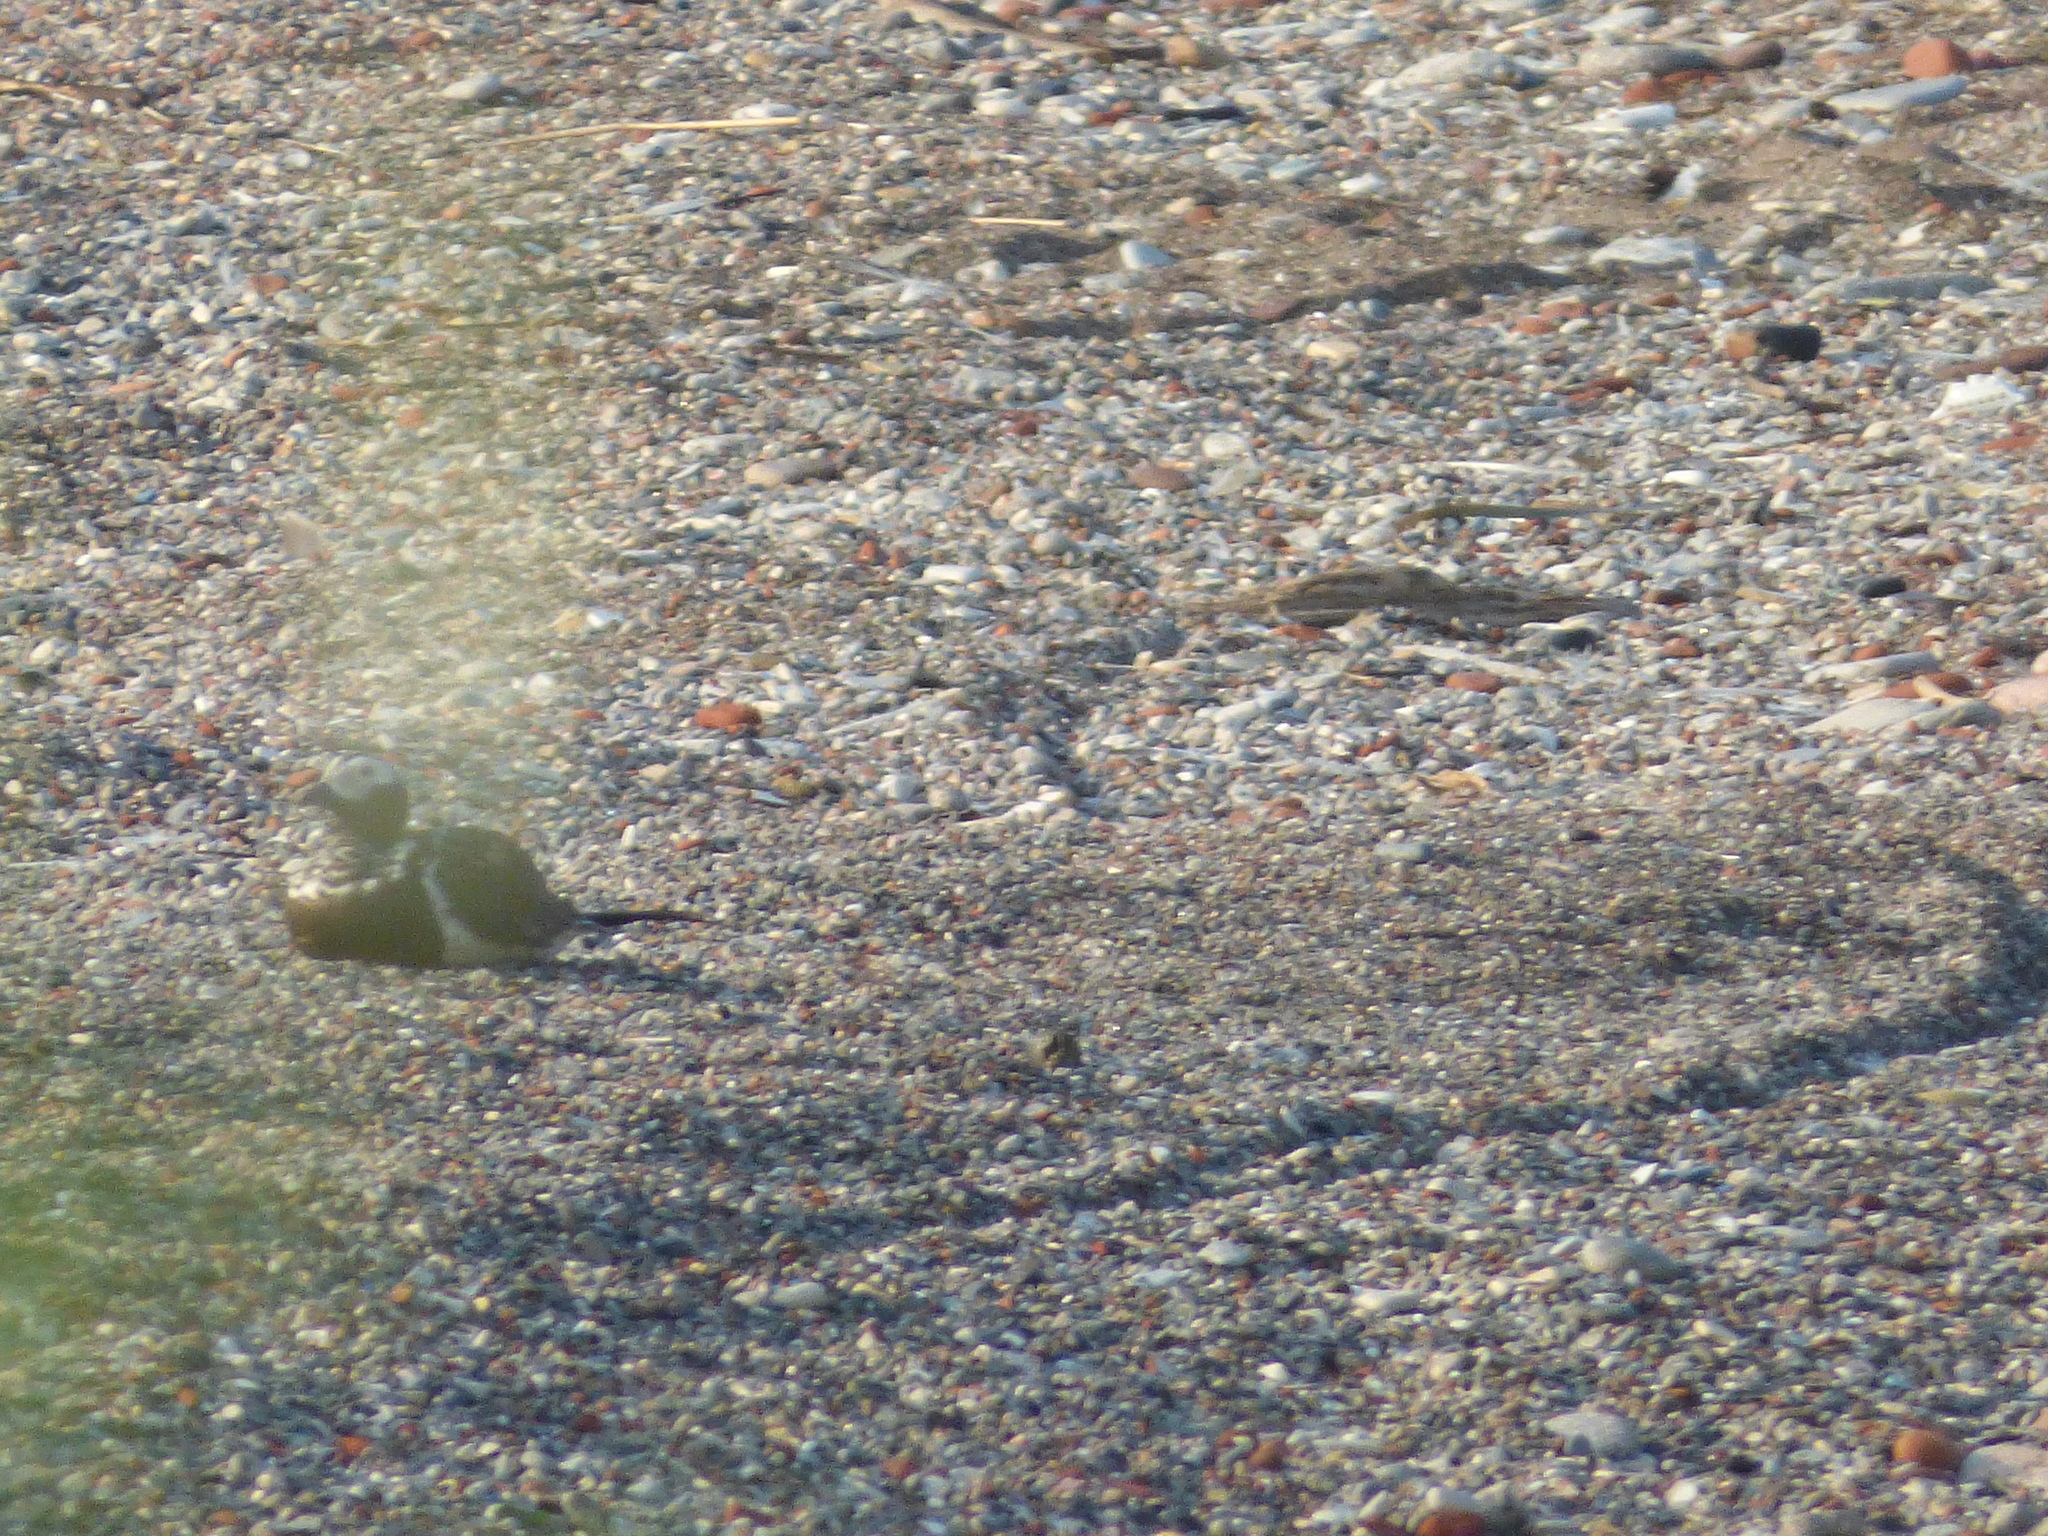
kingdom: Animalia
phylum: Chordata
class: Aves
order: Anseriformes
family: Anatidae
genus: Clangula
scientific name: Clangula hyemalis
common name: Long-tailed duck
